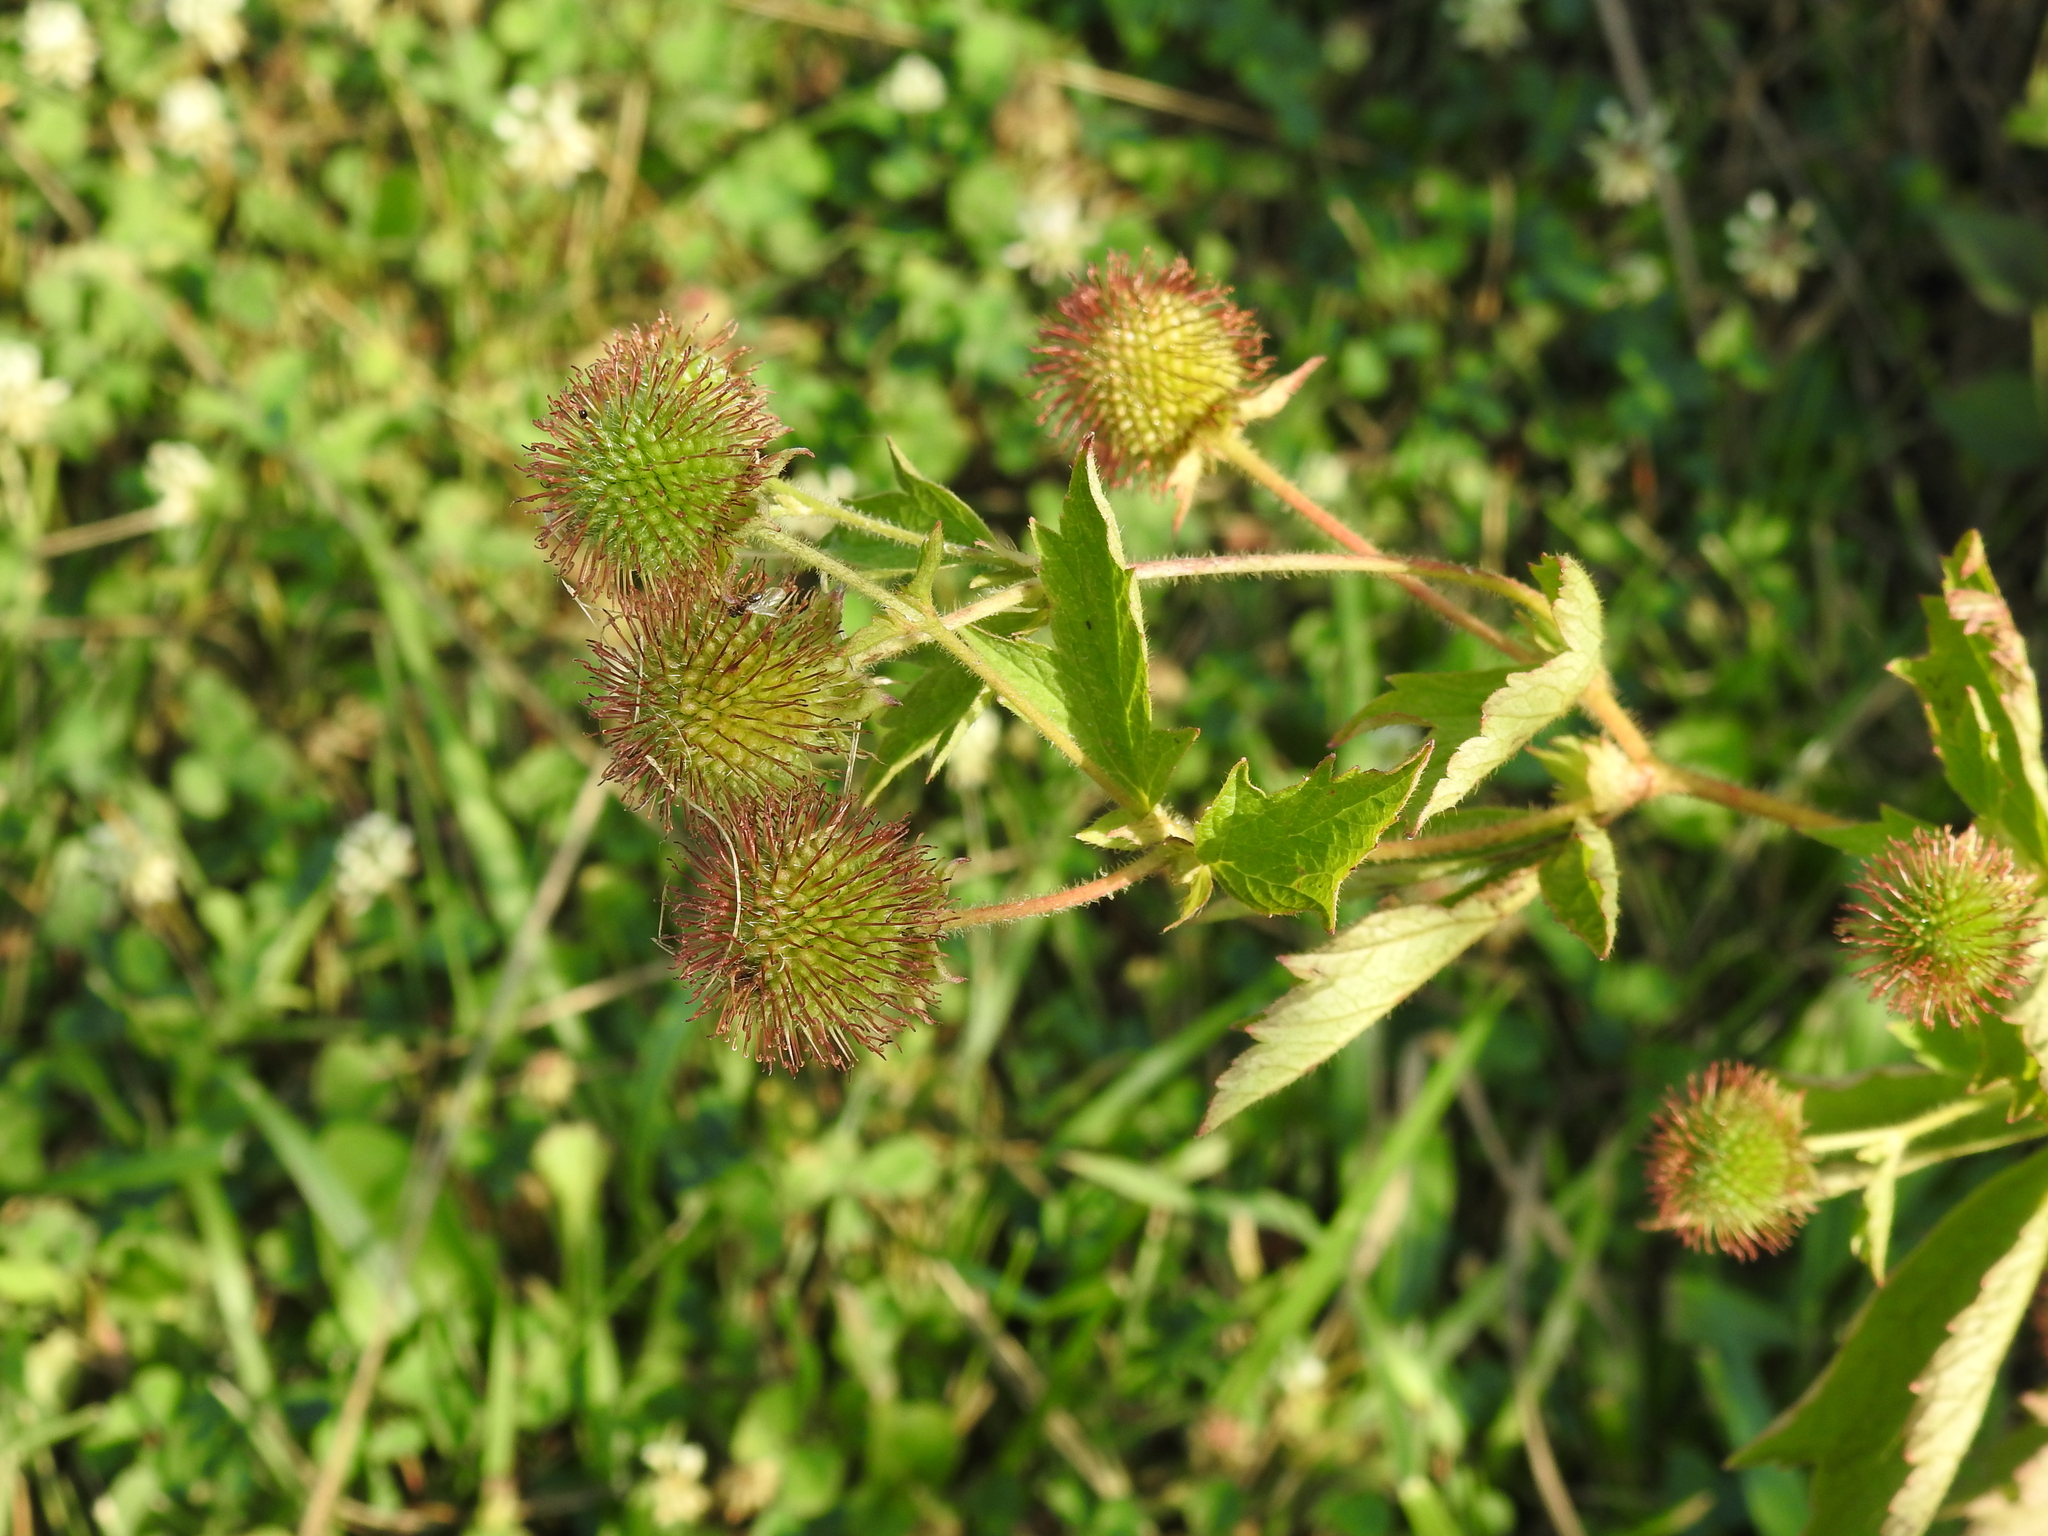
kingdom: Plantae
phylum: Tracheophyta
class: Magnoliopsida
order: Rosales
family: Rosaceae
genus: Geum
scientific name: Geum laciniatum
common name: Rough avens
